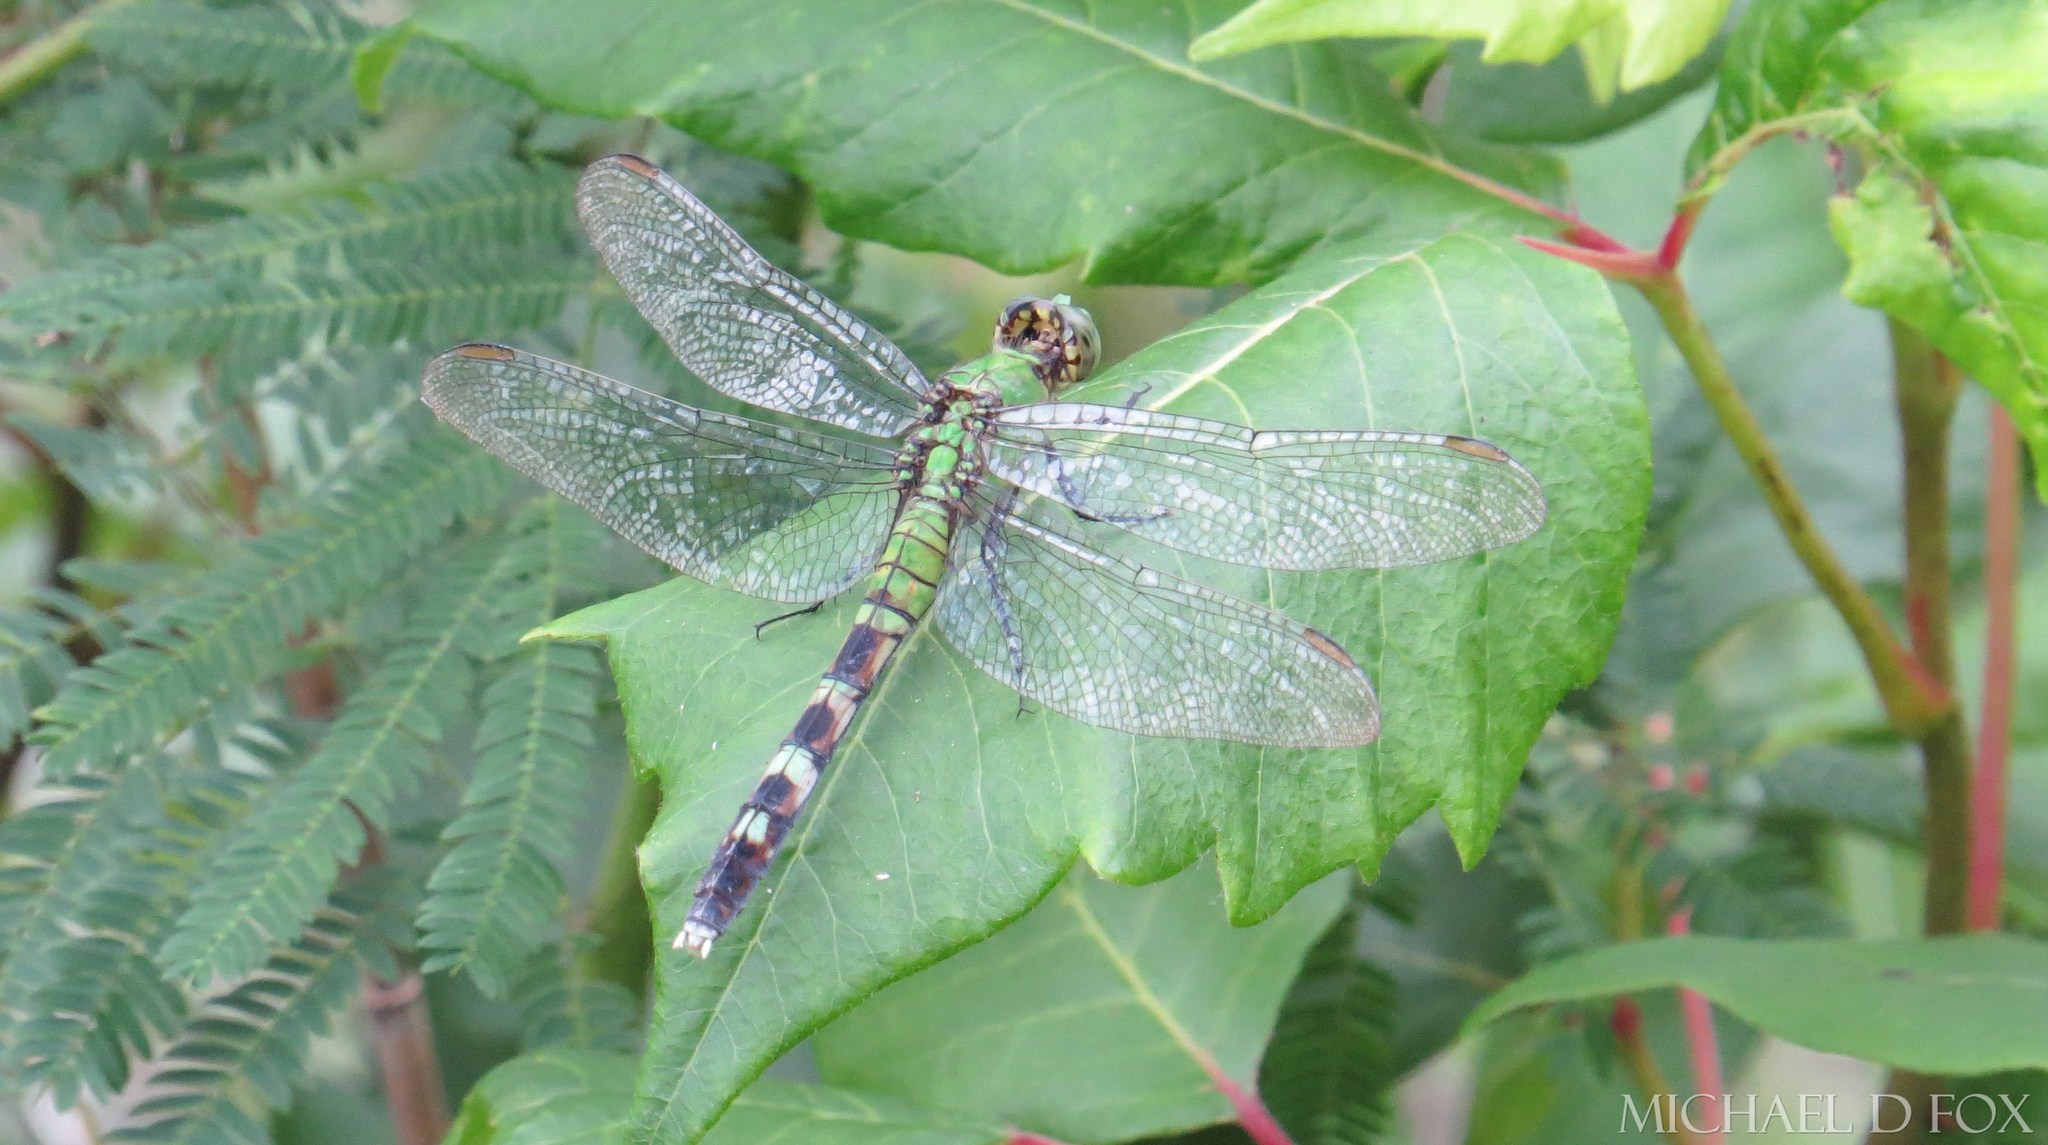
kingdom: Animalia
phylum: Arthropoda
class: Insecta
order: Odonata
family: Libellulidae
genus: Erythemis
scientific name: Erythemis simplicicollis
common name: Eastern pondhawk
